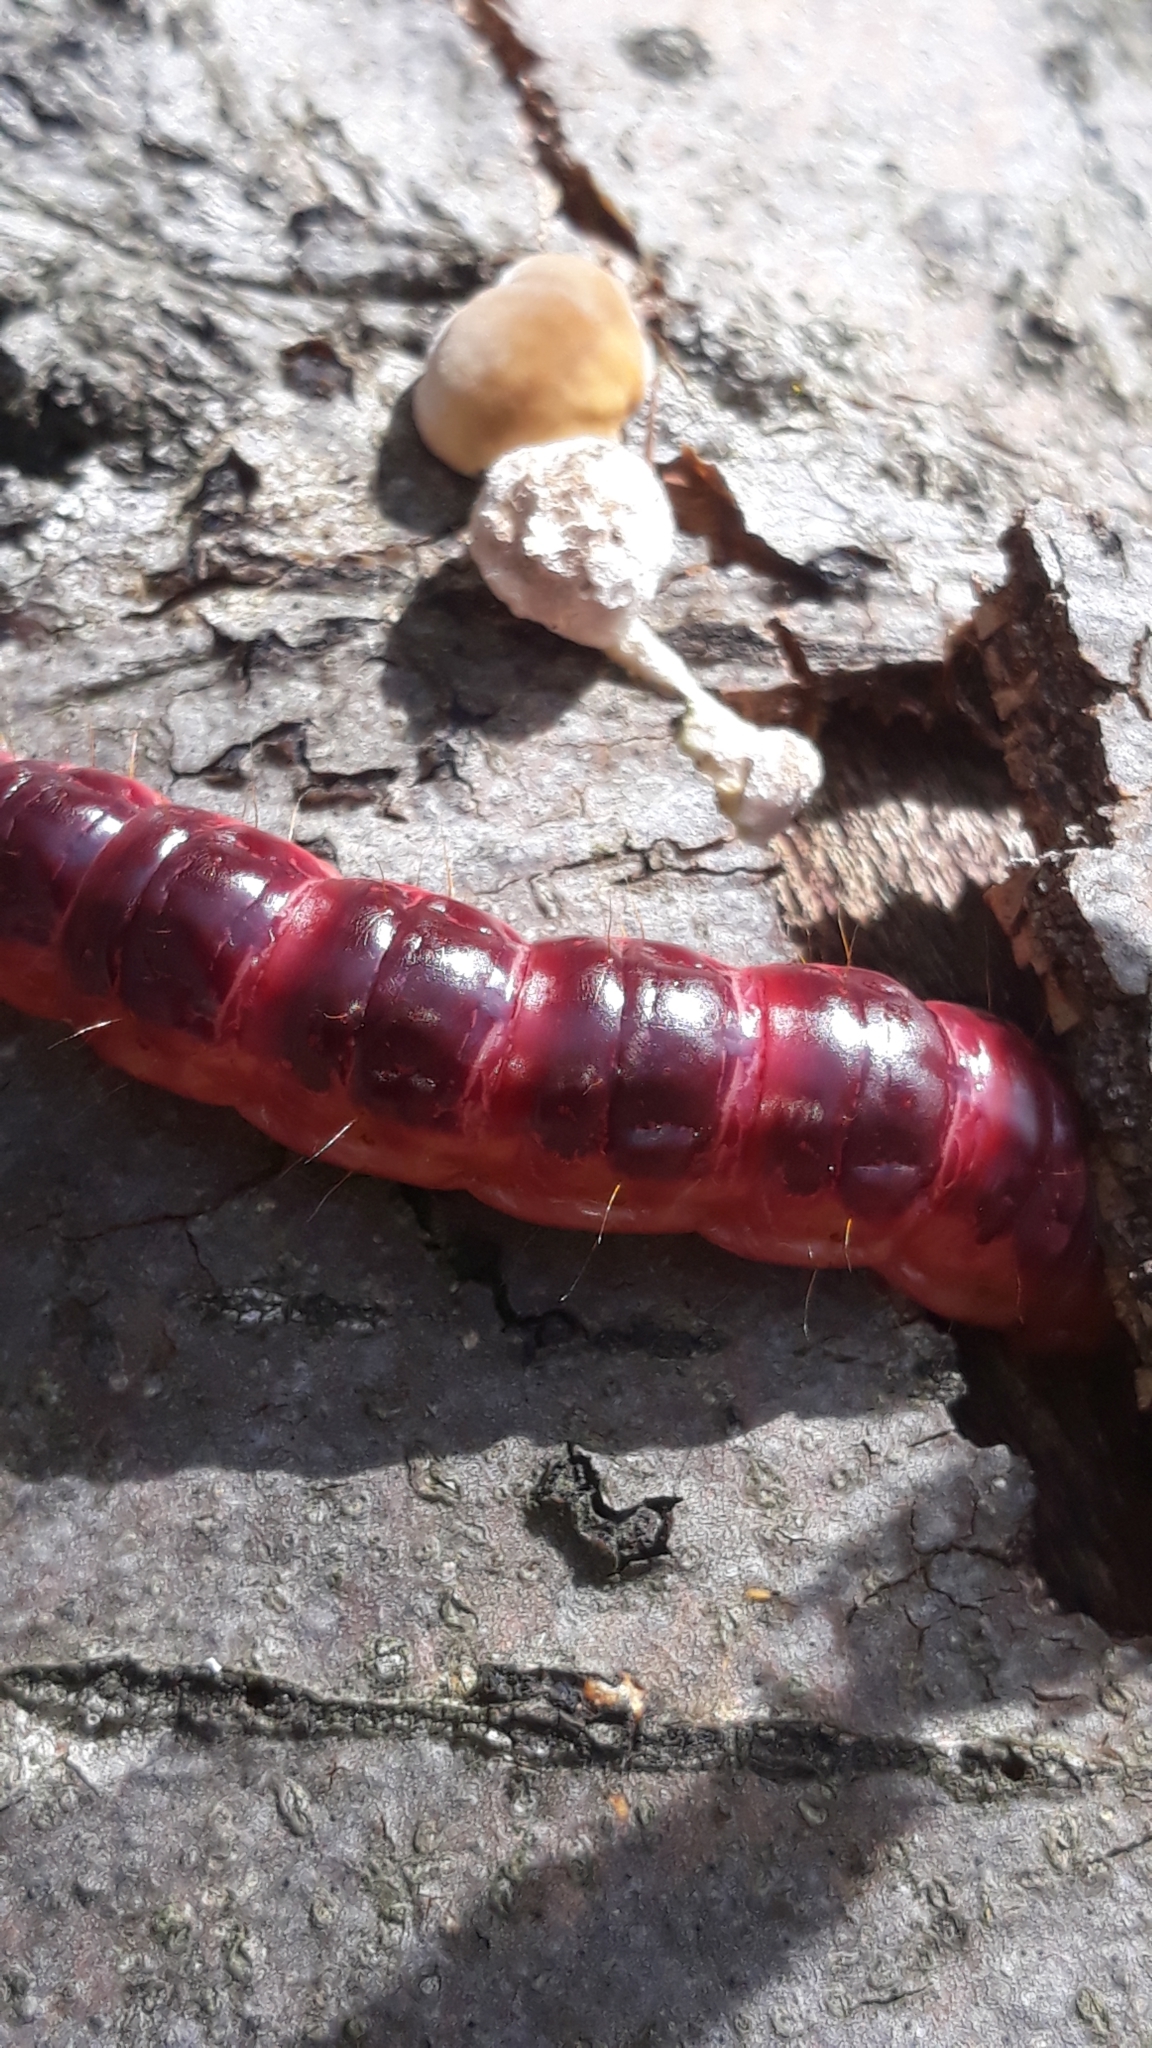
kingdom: Animalia
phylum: Arthropoda
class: Insecta
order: Lepidoptera
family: Cossidae
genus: Cossus
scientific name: Cossus cossus
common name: Goat moth
